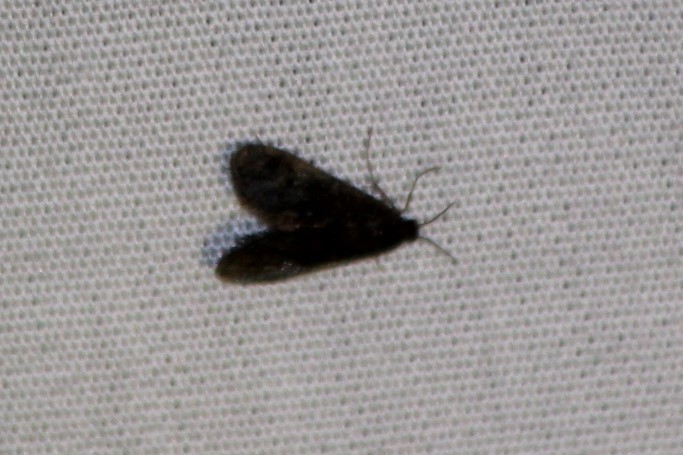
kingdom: Animalia
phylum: Arthropoda
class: Insecta
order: Lepidoptera
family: Crambidae
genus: Elophila
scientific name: Elophila tinealis
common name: Black duckweed moth
